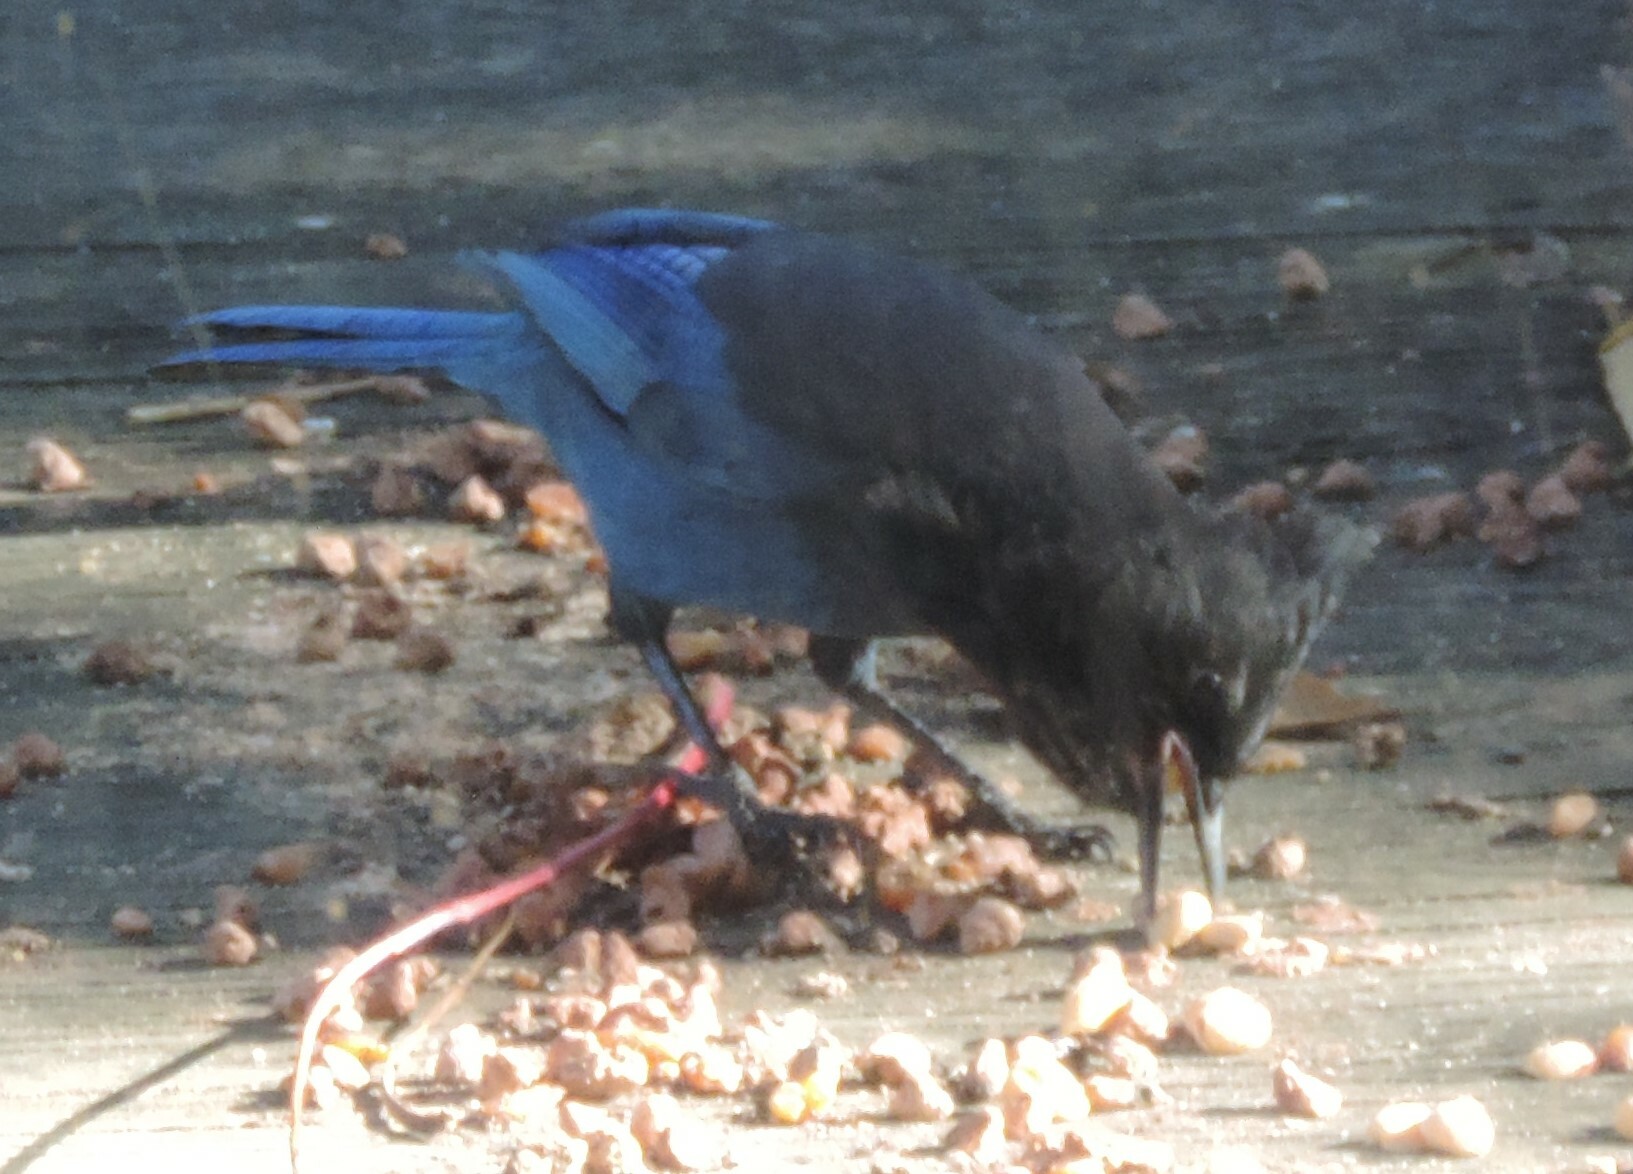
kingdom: Animalia
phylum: Chordata
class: Aves
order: Passeriformes
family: Corvidae
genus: Cyanocitta
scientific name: Cyanocitta stelleri
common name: Steller's jay
